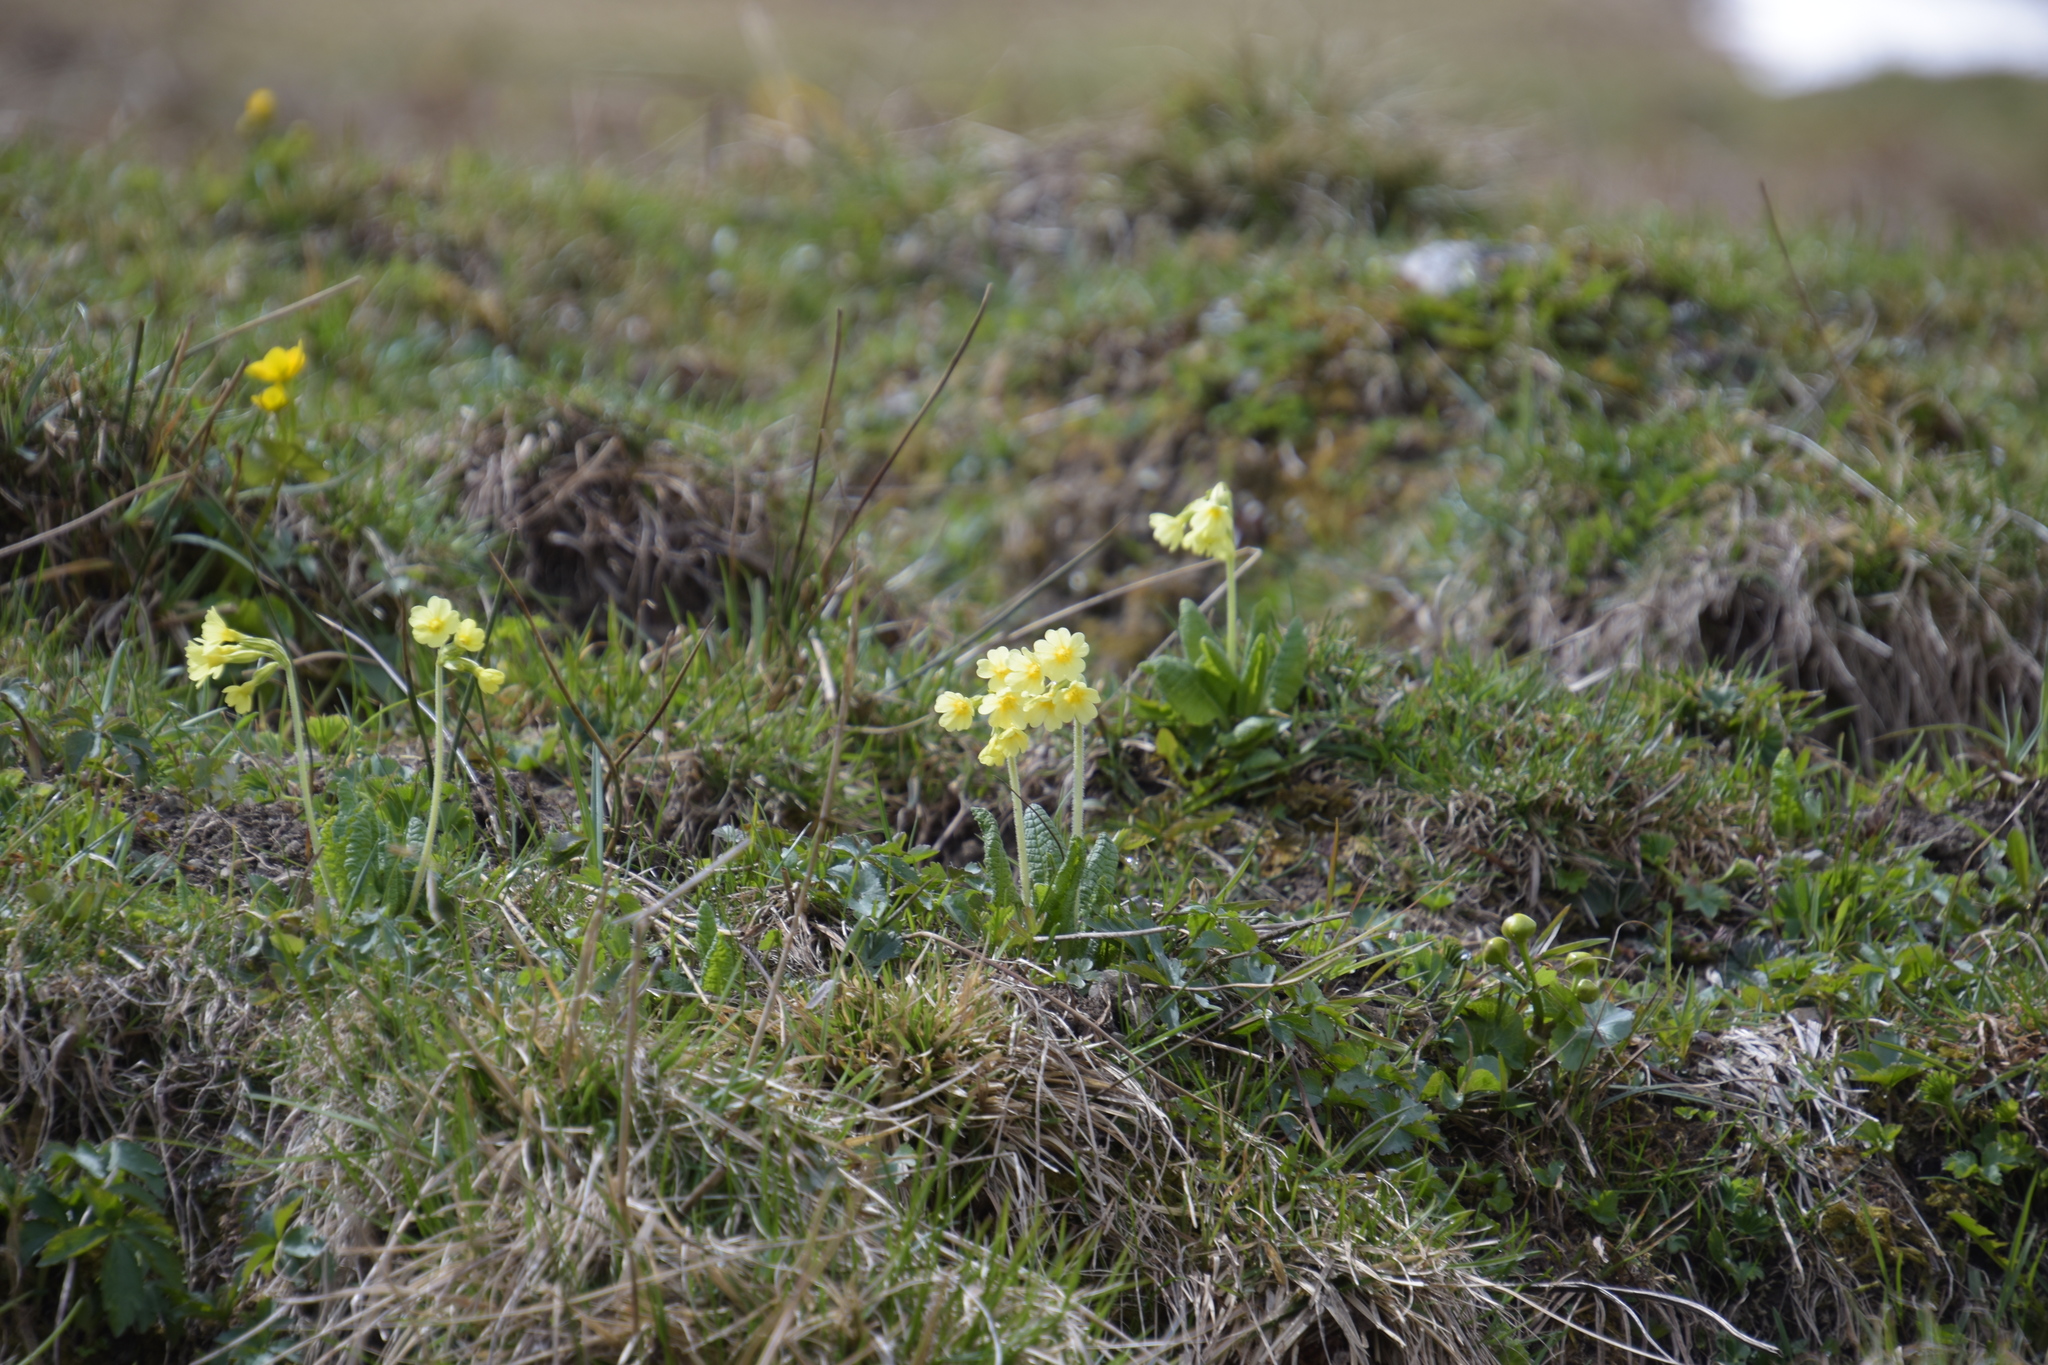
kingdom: Plantae
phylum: Tracheophyta
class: Magnoliopsida
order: Ericales
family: Primulaceae
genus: Primula
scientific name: Primula elatior
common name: Oxlip
